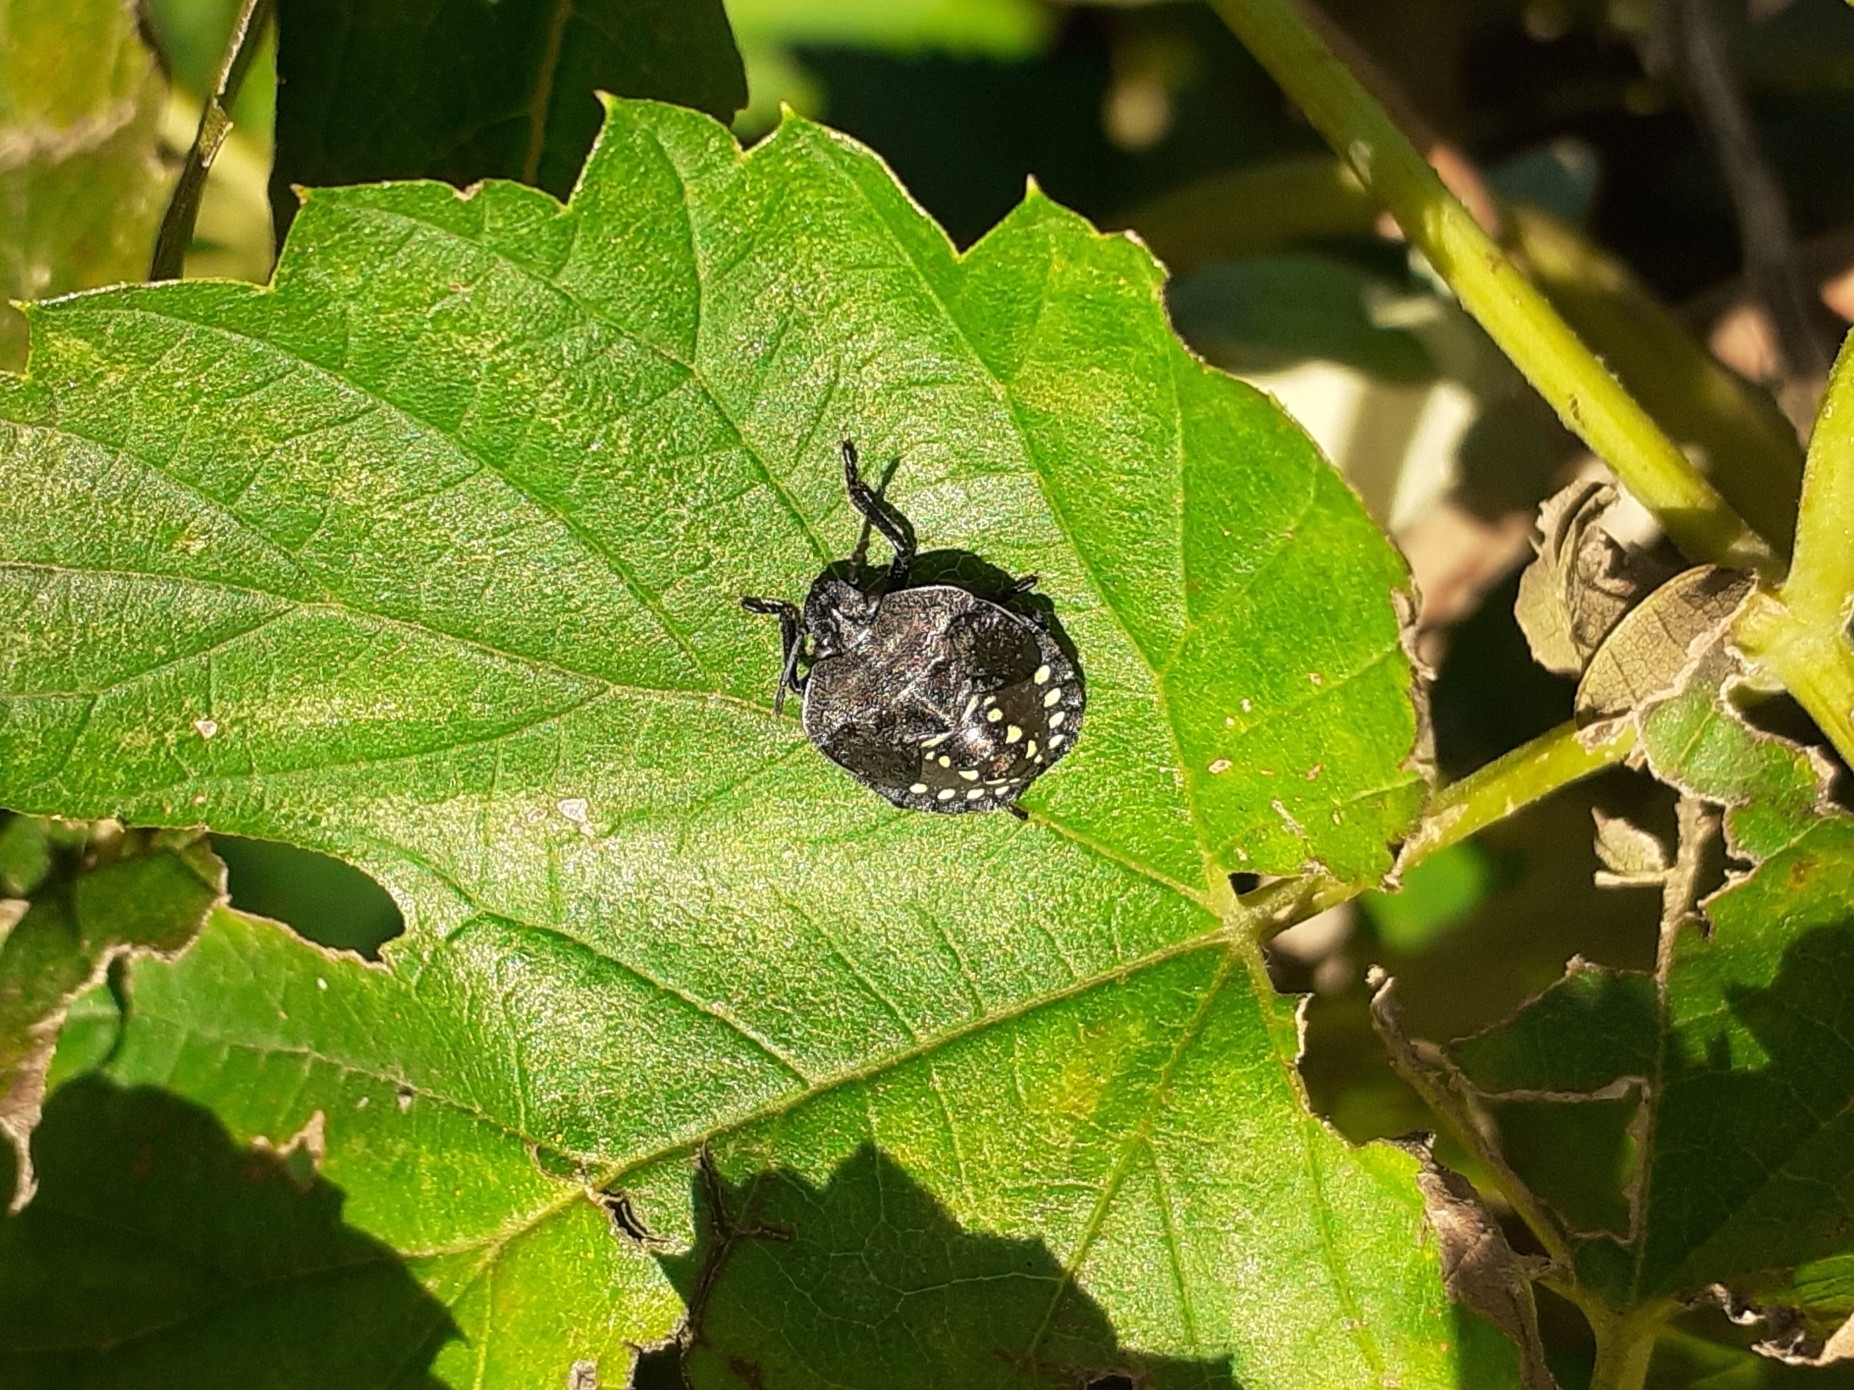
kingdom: Animalia
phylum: Arthropoda
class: Insecta
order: Hemiptera
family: Pentatomidae
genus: Nezara
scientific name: Nezara viridula
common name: Southern green stink bug
